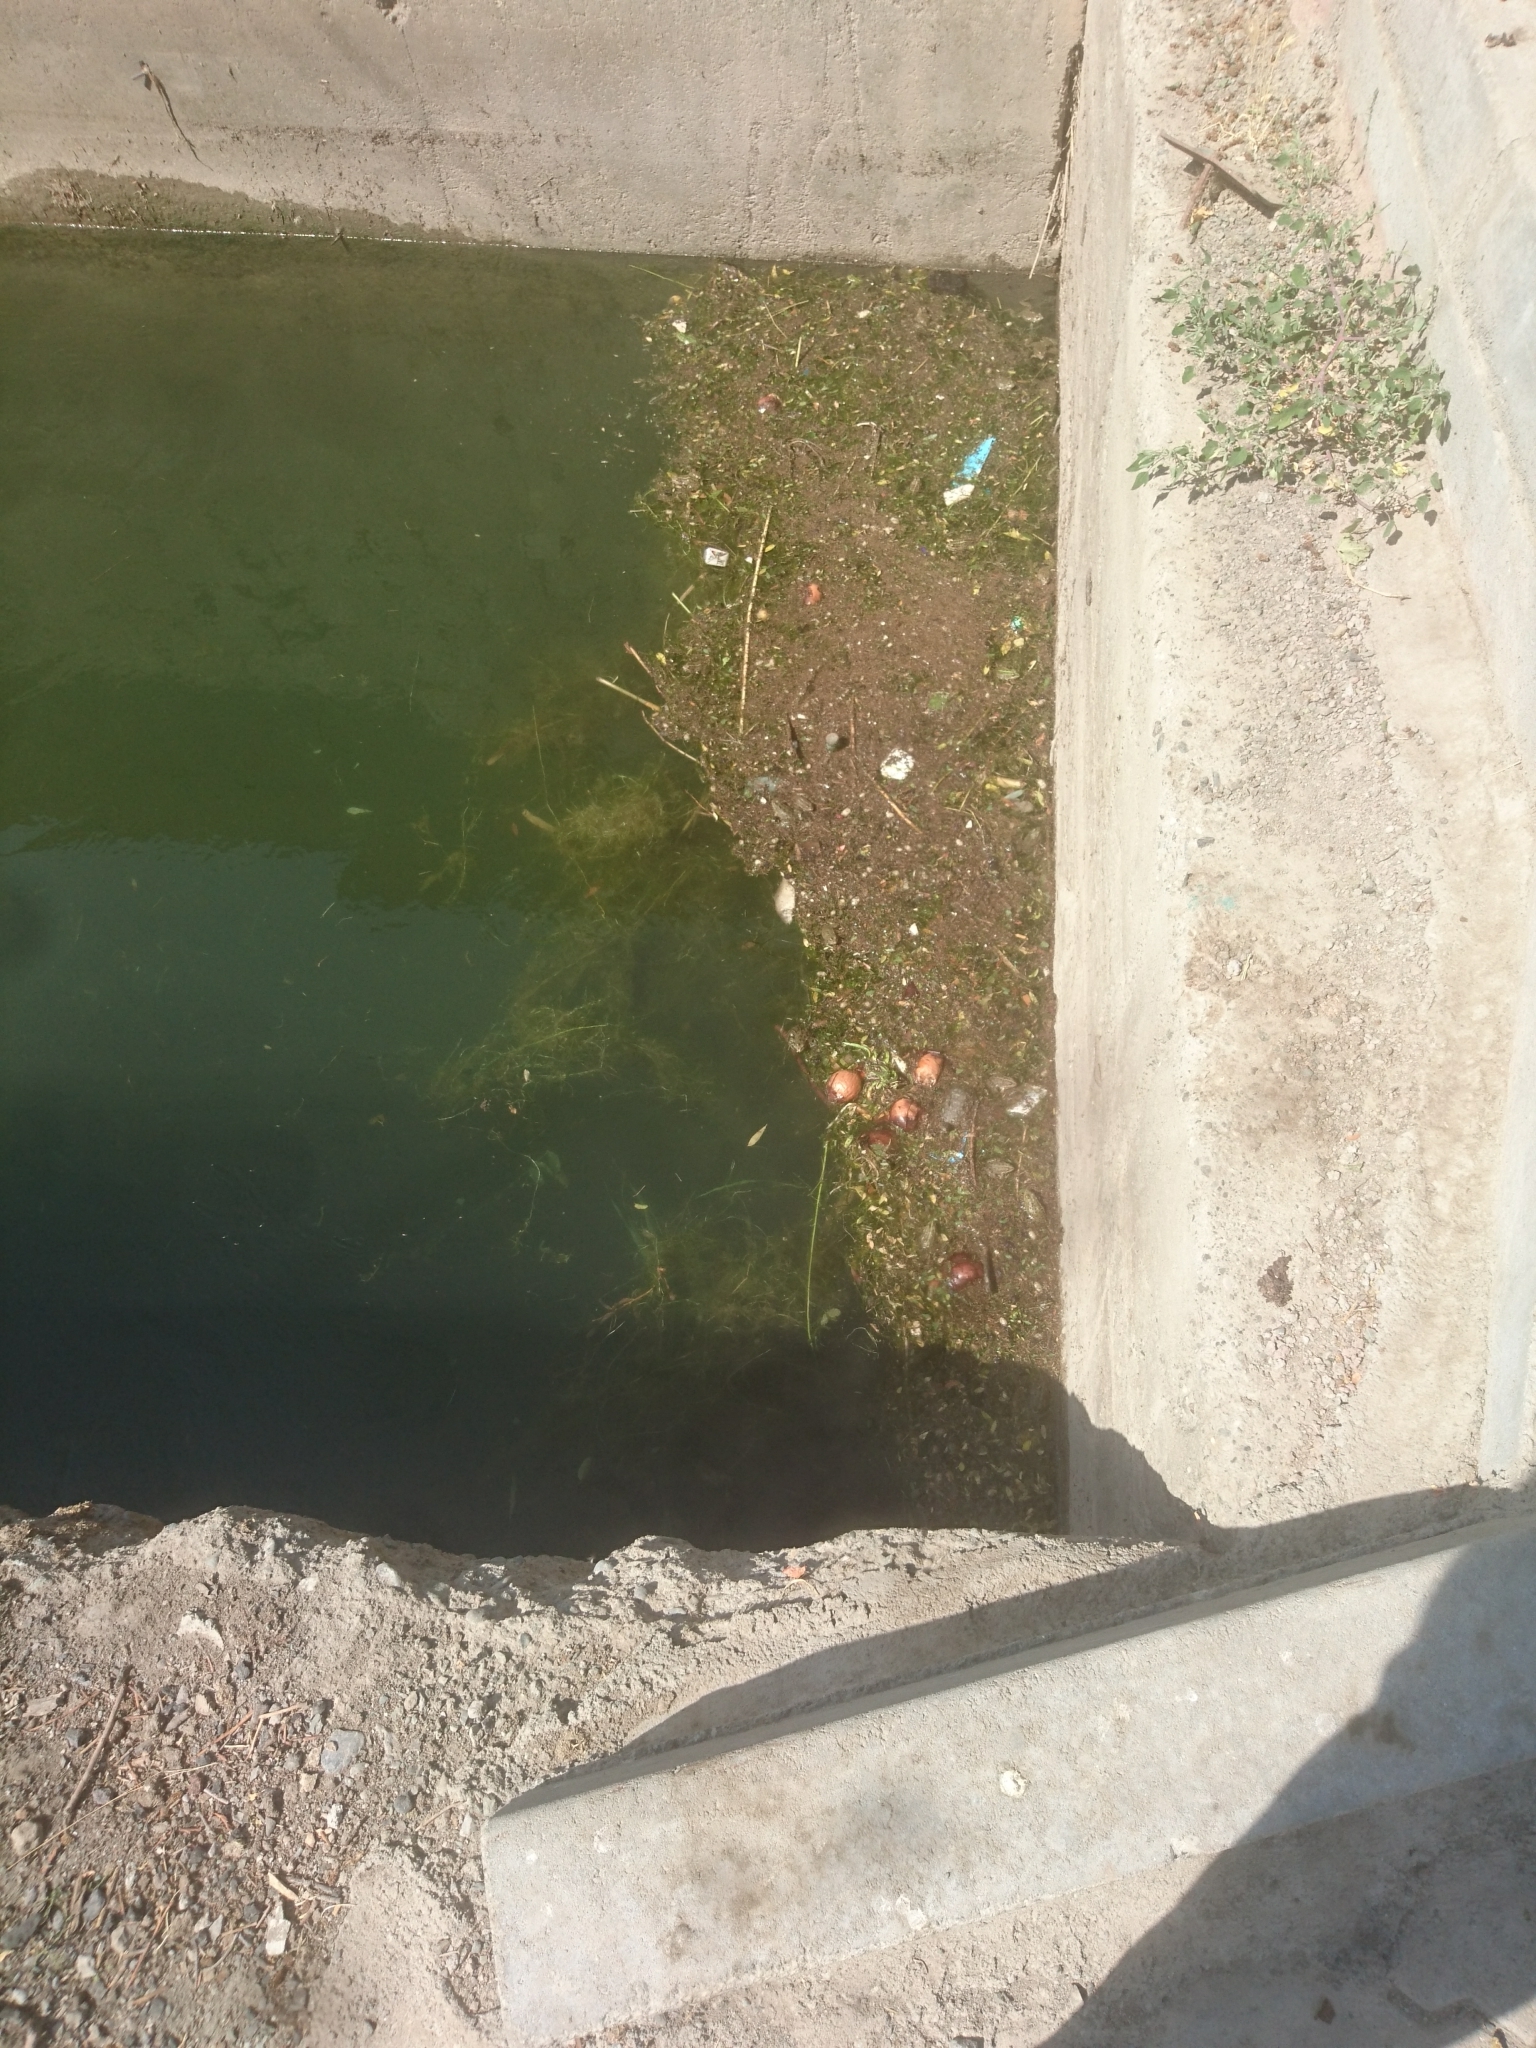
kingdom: Animalia
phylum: Chordata
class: Amphibia
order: Anura
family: Ranidae
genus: Pelophylax
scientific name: Pelophylax ridibundus
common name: Marsh frog
